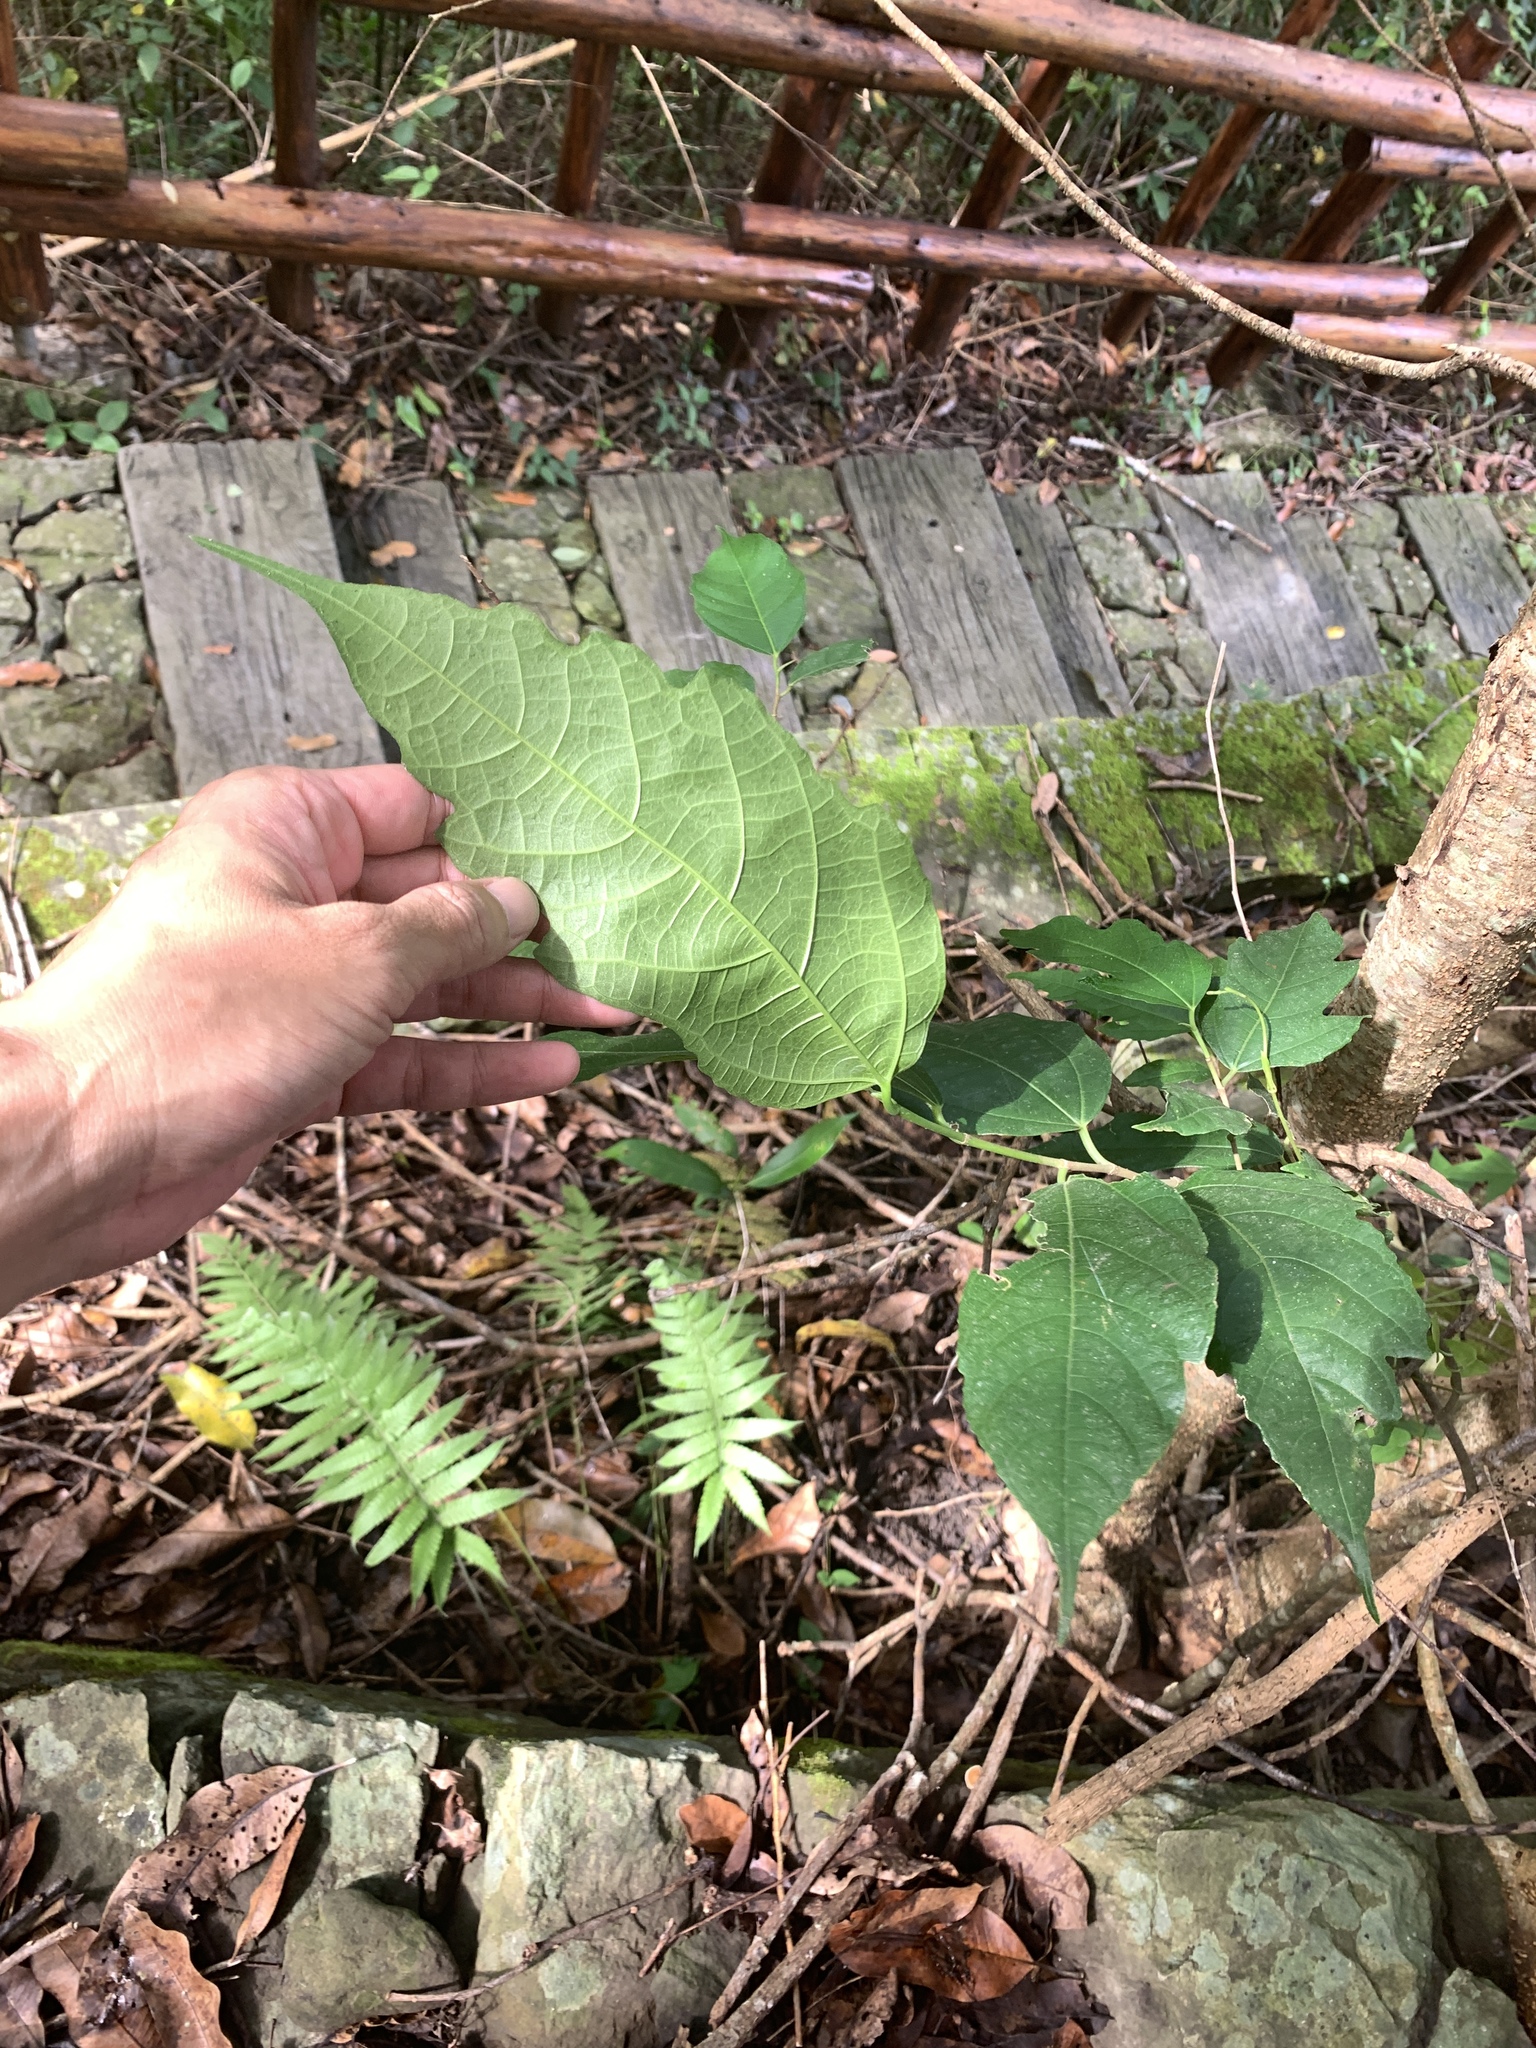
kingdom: Plantae
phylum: Tracheophyta
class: Magnoliopsida
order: Rosales
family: Moraceae
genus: Ficus
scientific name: Ficus ampelos
